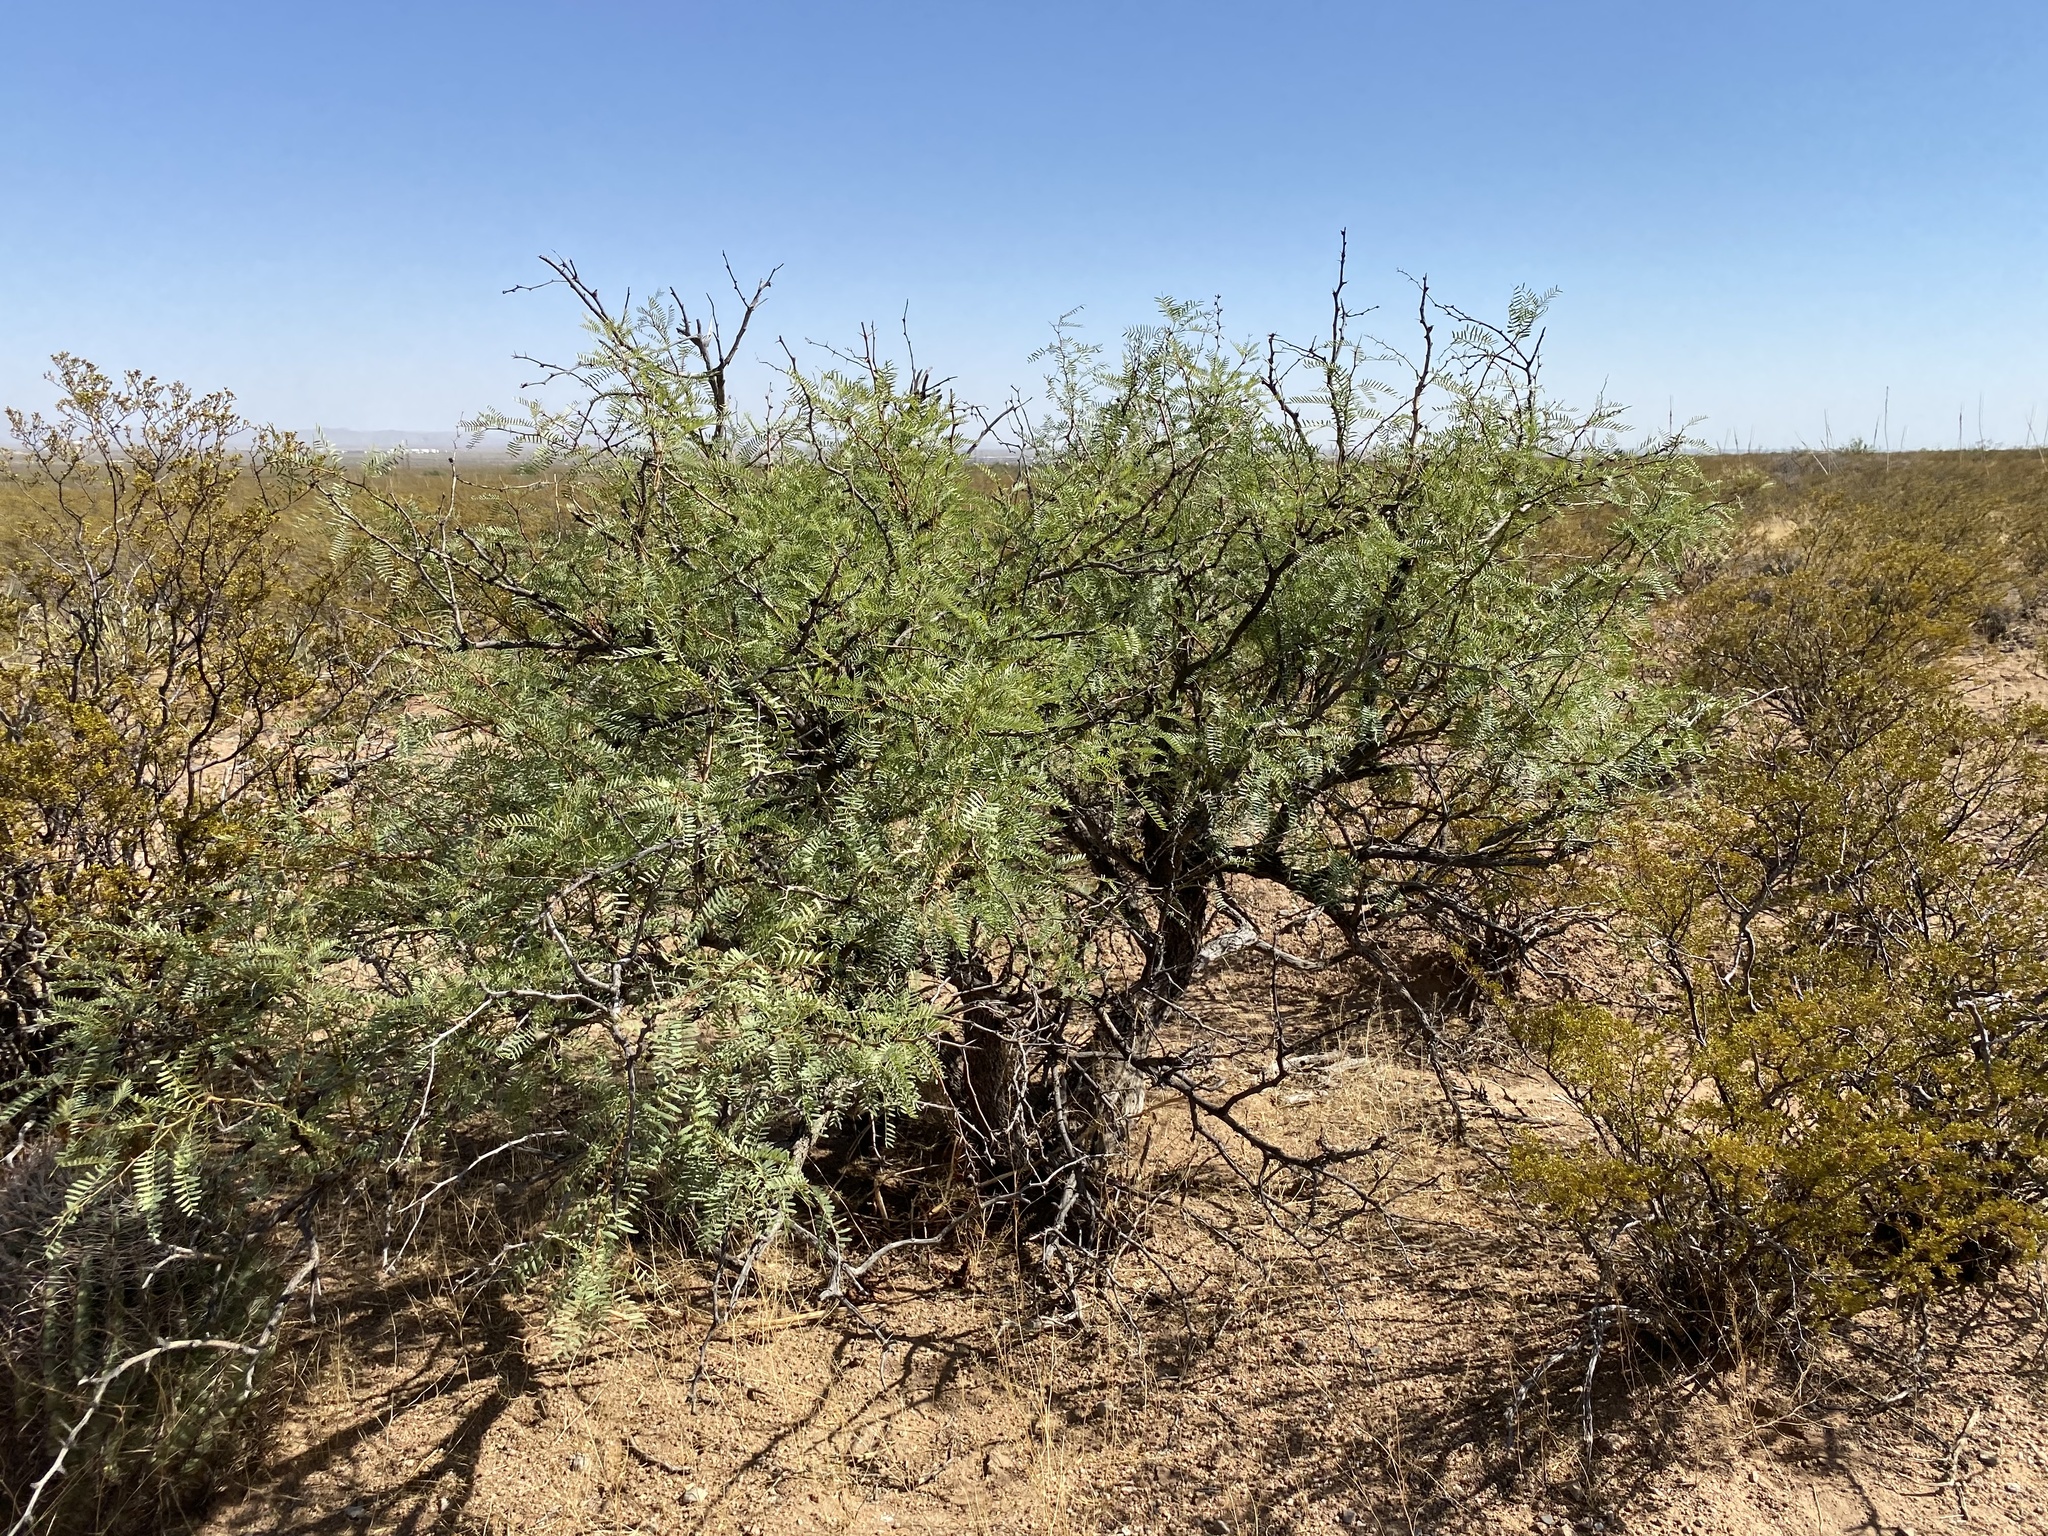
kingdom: Plantae
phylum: Tracheophyta
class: Magnoliopsida
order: Fabales
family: Fabaceae
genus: Prosopis
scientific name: Prosopis glandulosa
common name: Honey mesquite
